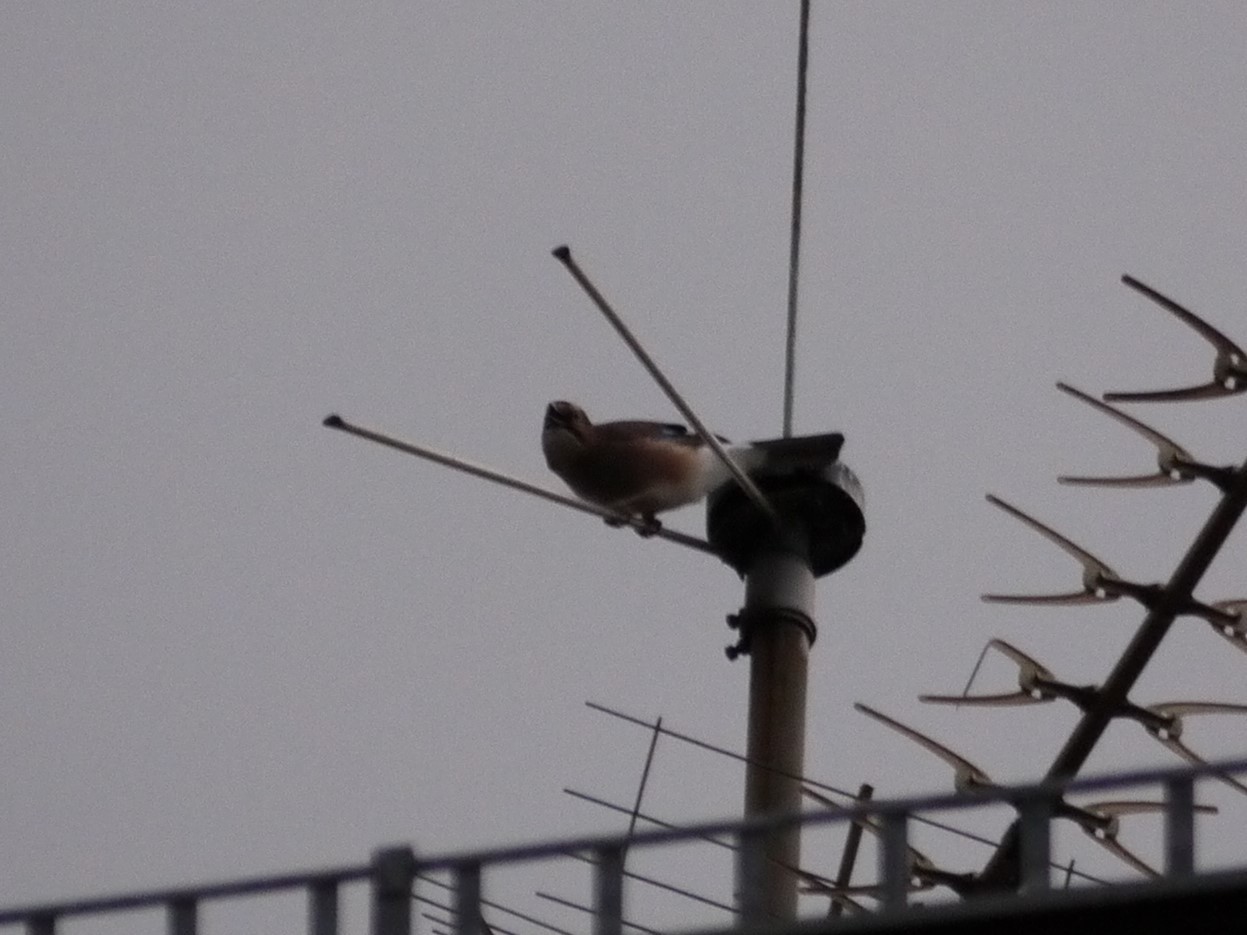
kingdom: Animalia
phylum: Chordata
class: Aves
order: Passeriformes
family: Corvidae
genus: Garrulus
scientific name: Garrulus glandarius
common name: Eurasian jay
